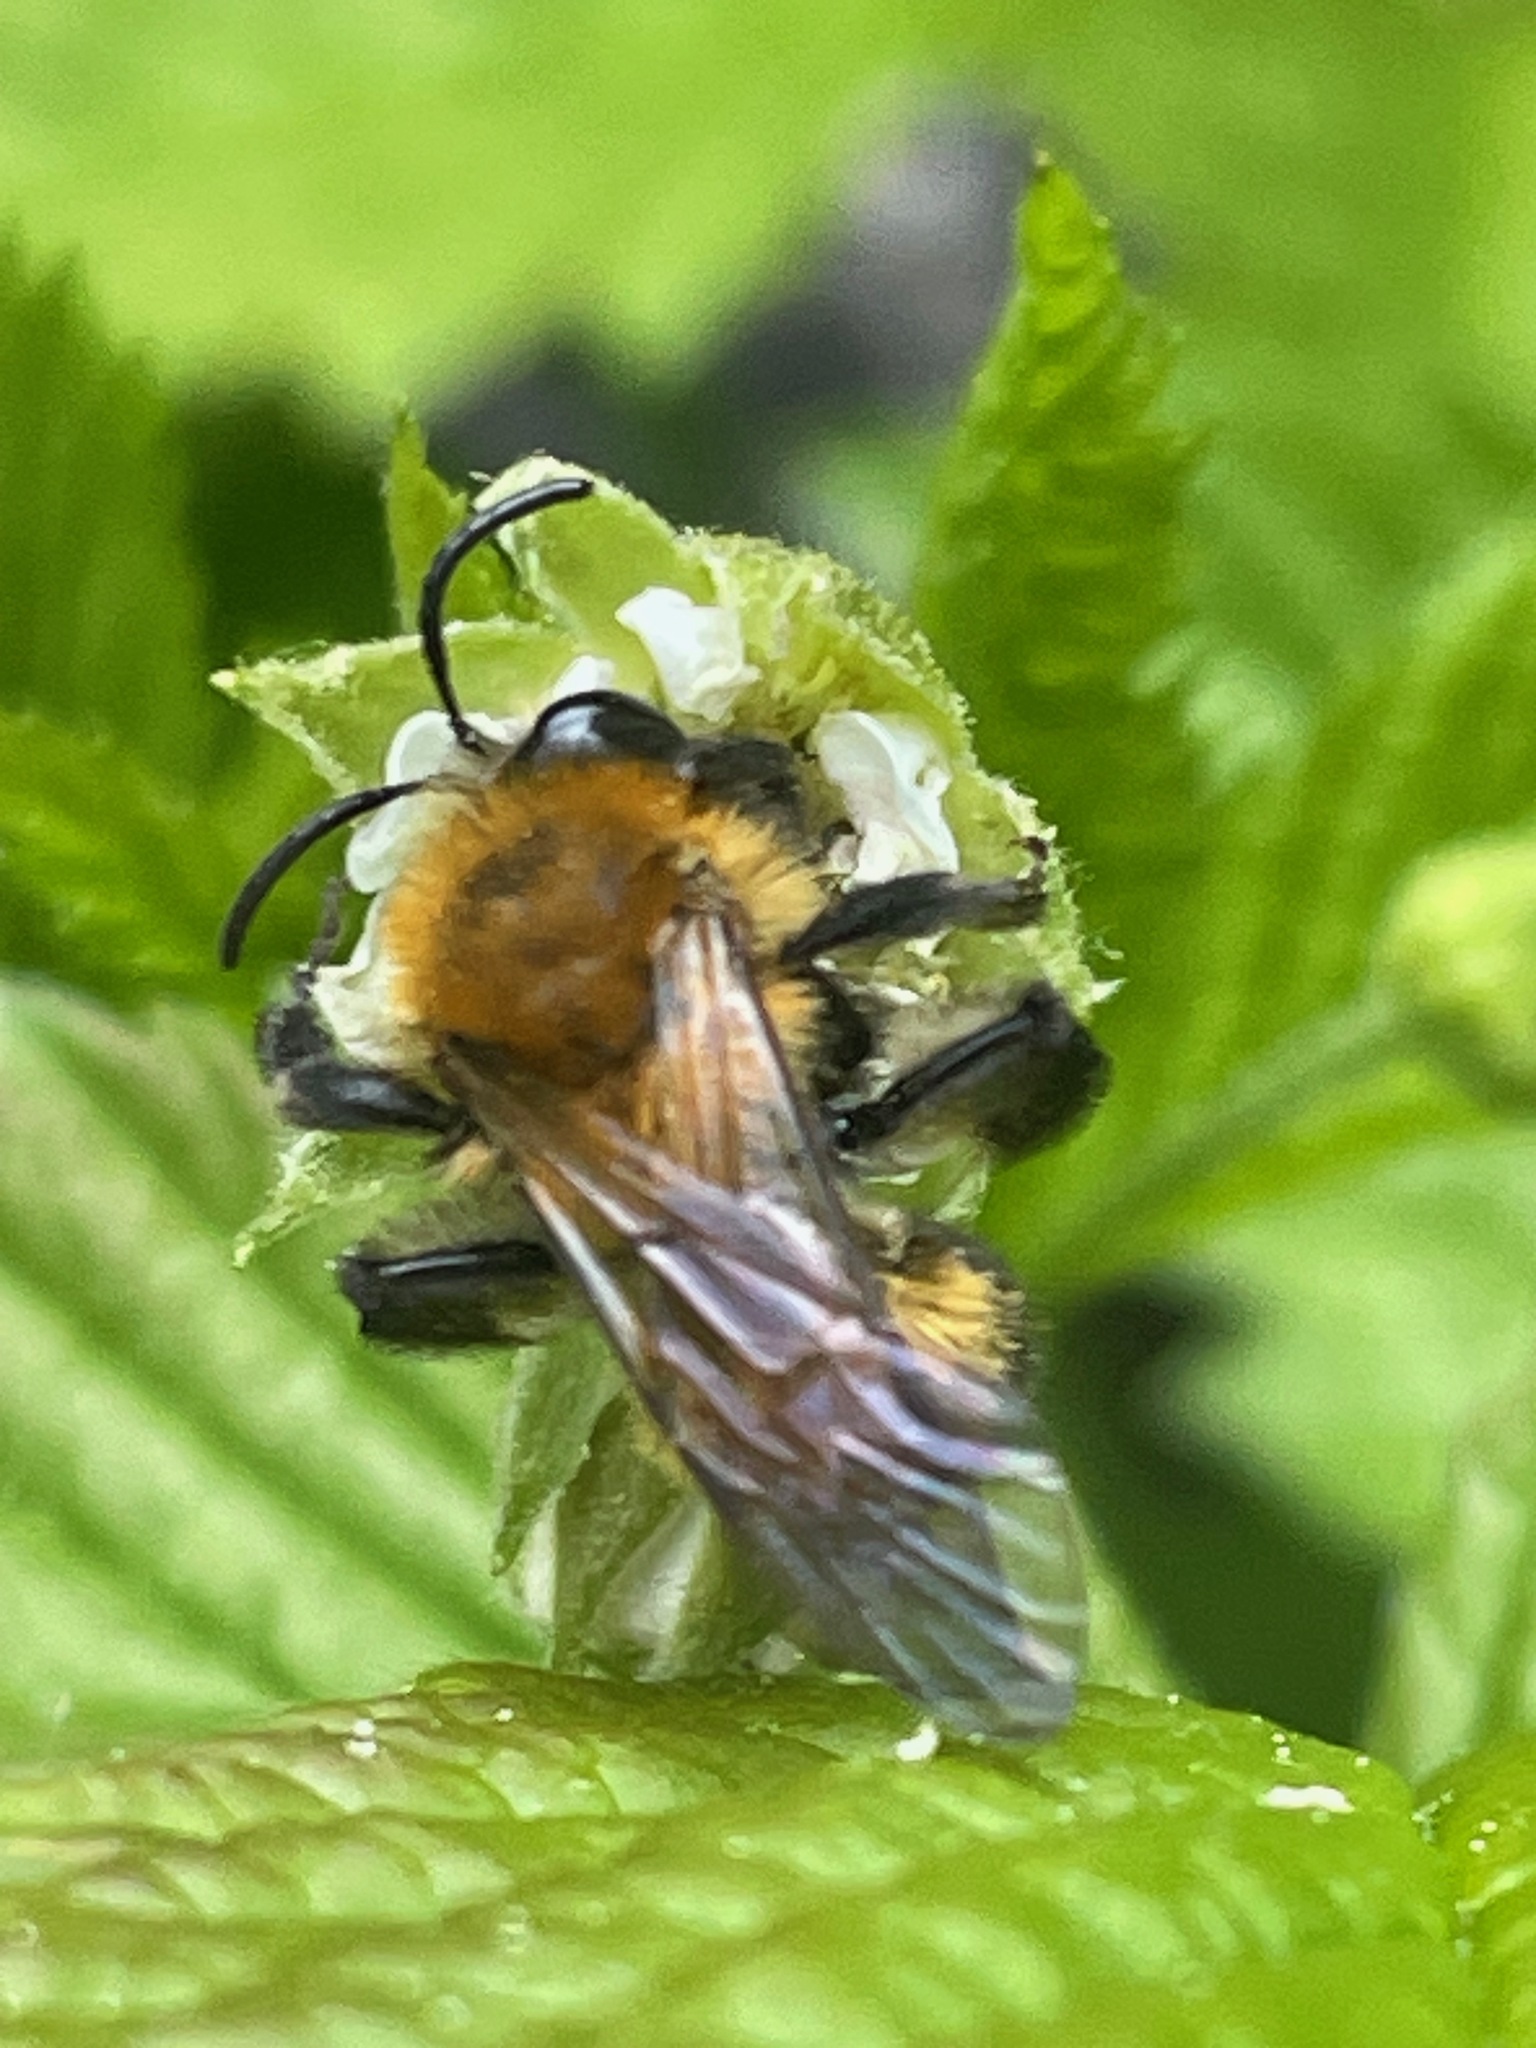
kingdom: Animalia
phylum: Arthropoda
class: Insecta
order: Hymenoptera
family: Andrenidae
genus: Andrena
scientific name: Andrena milwaukeensis
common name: Milwaukee mining bee
